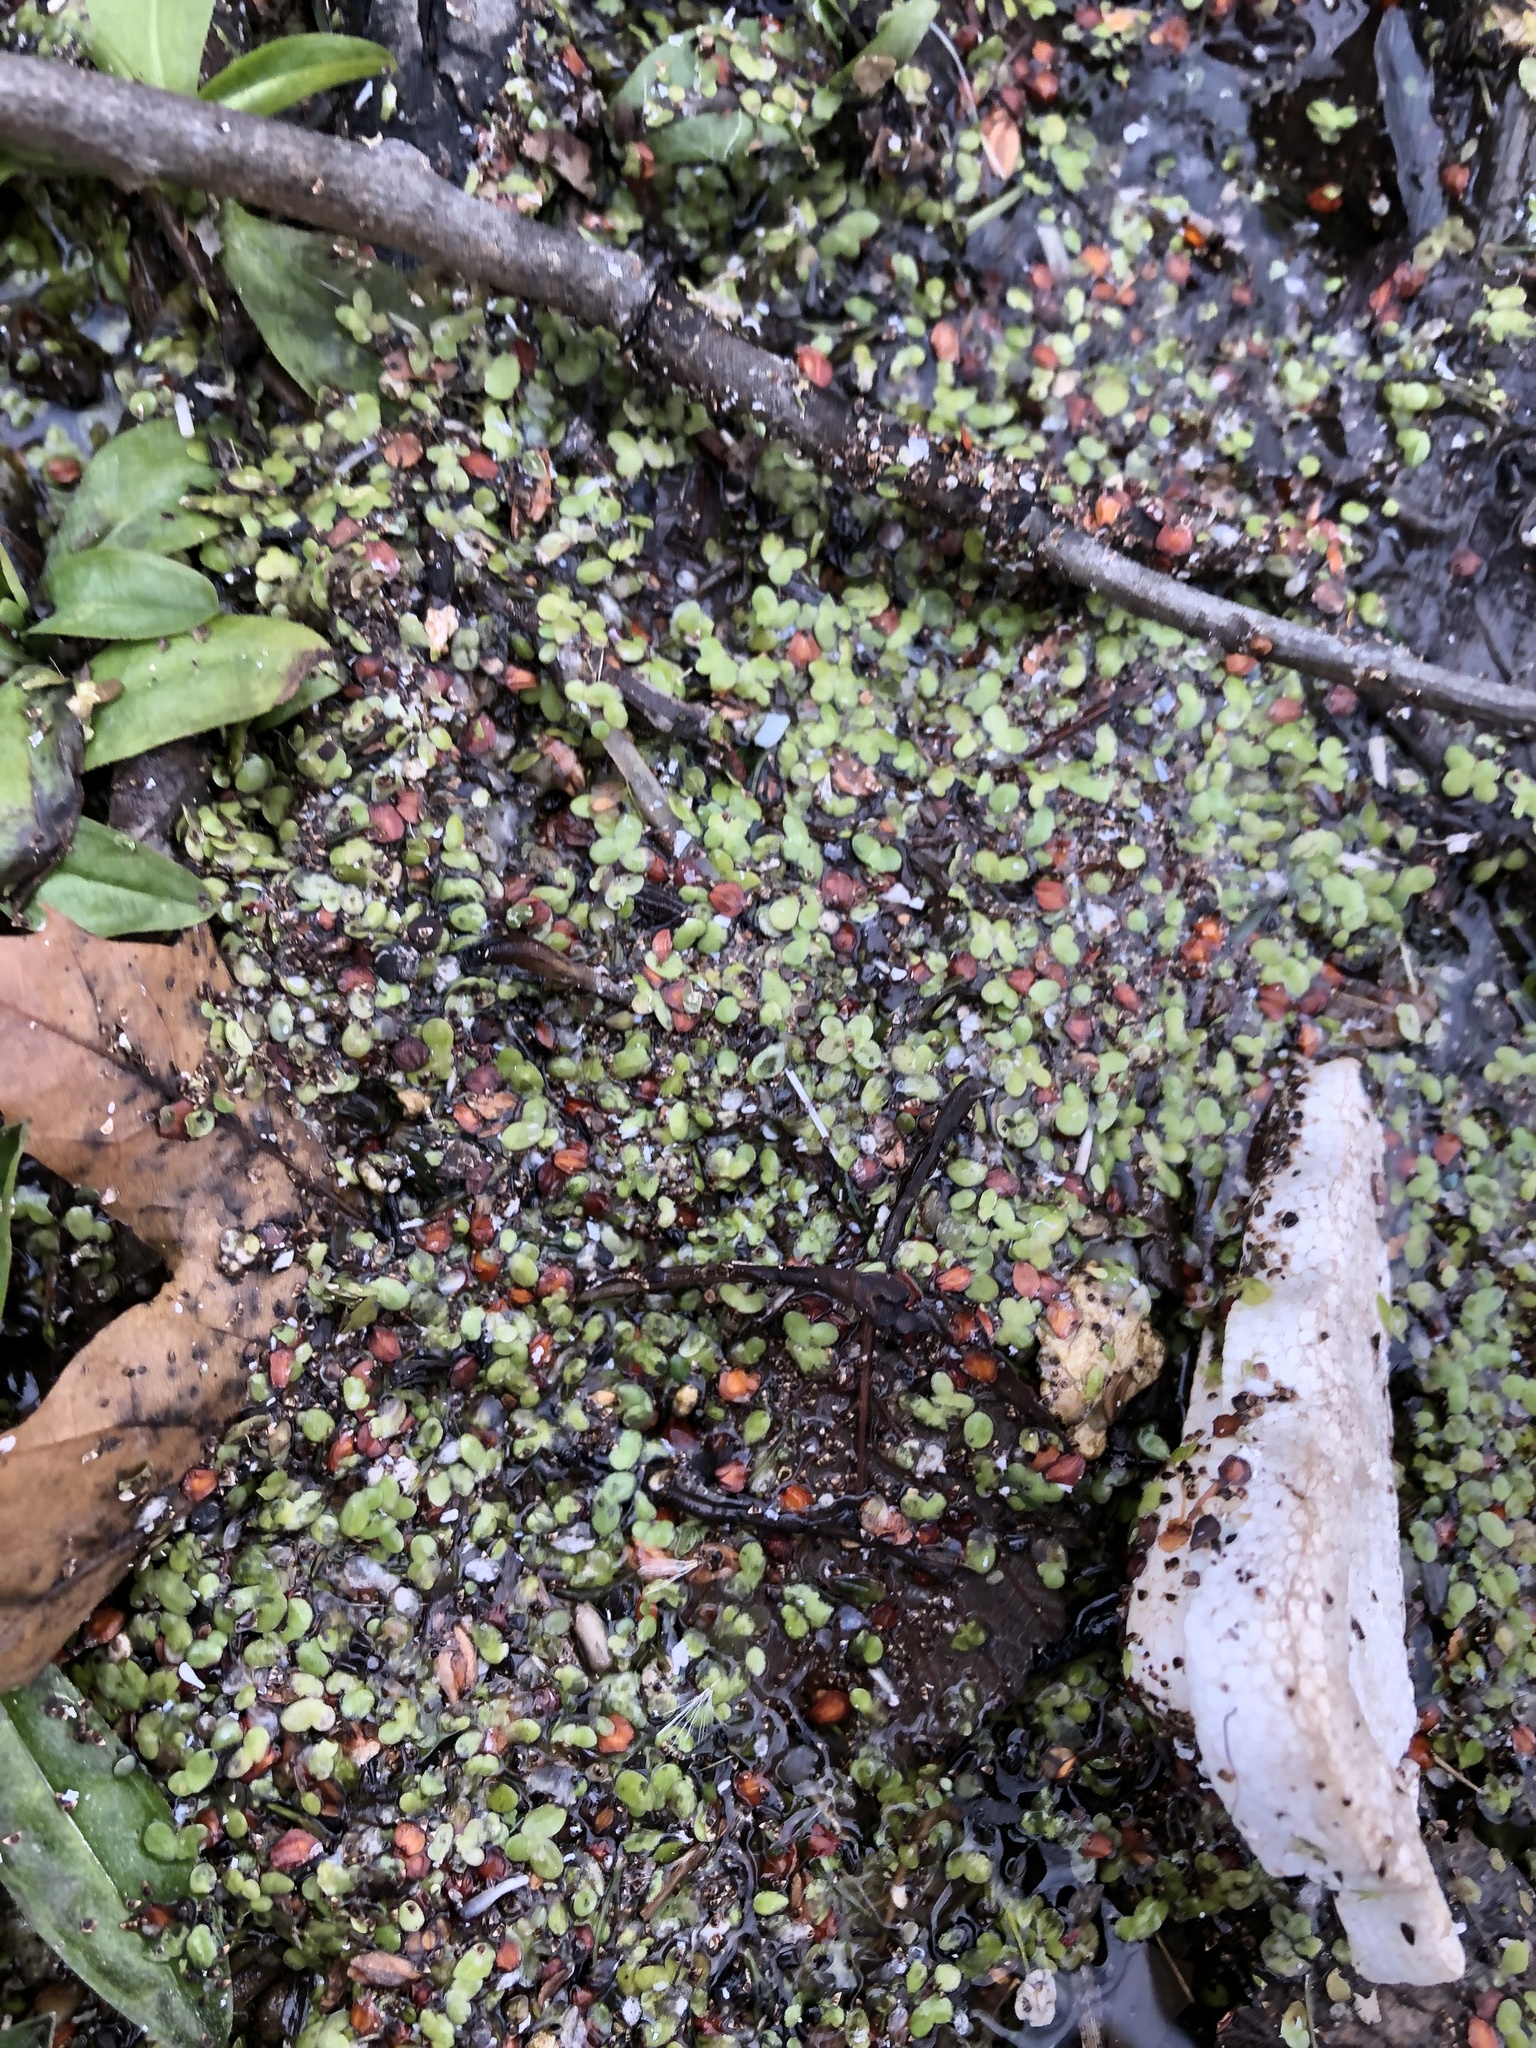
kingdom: Plantae
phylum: Tracheophyta
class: Liliopsida
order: Alismatales
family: Araceae
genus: Lemna
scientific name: Lemna minor
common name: Common duckweed
